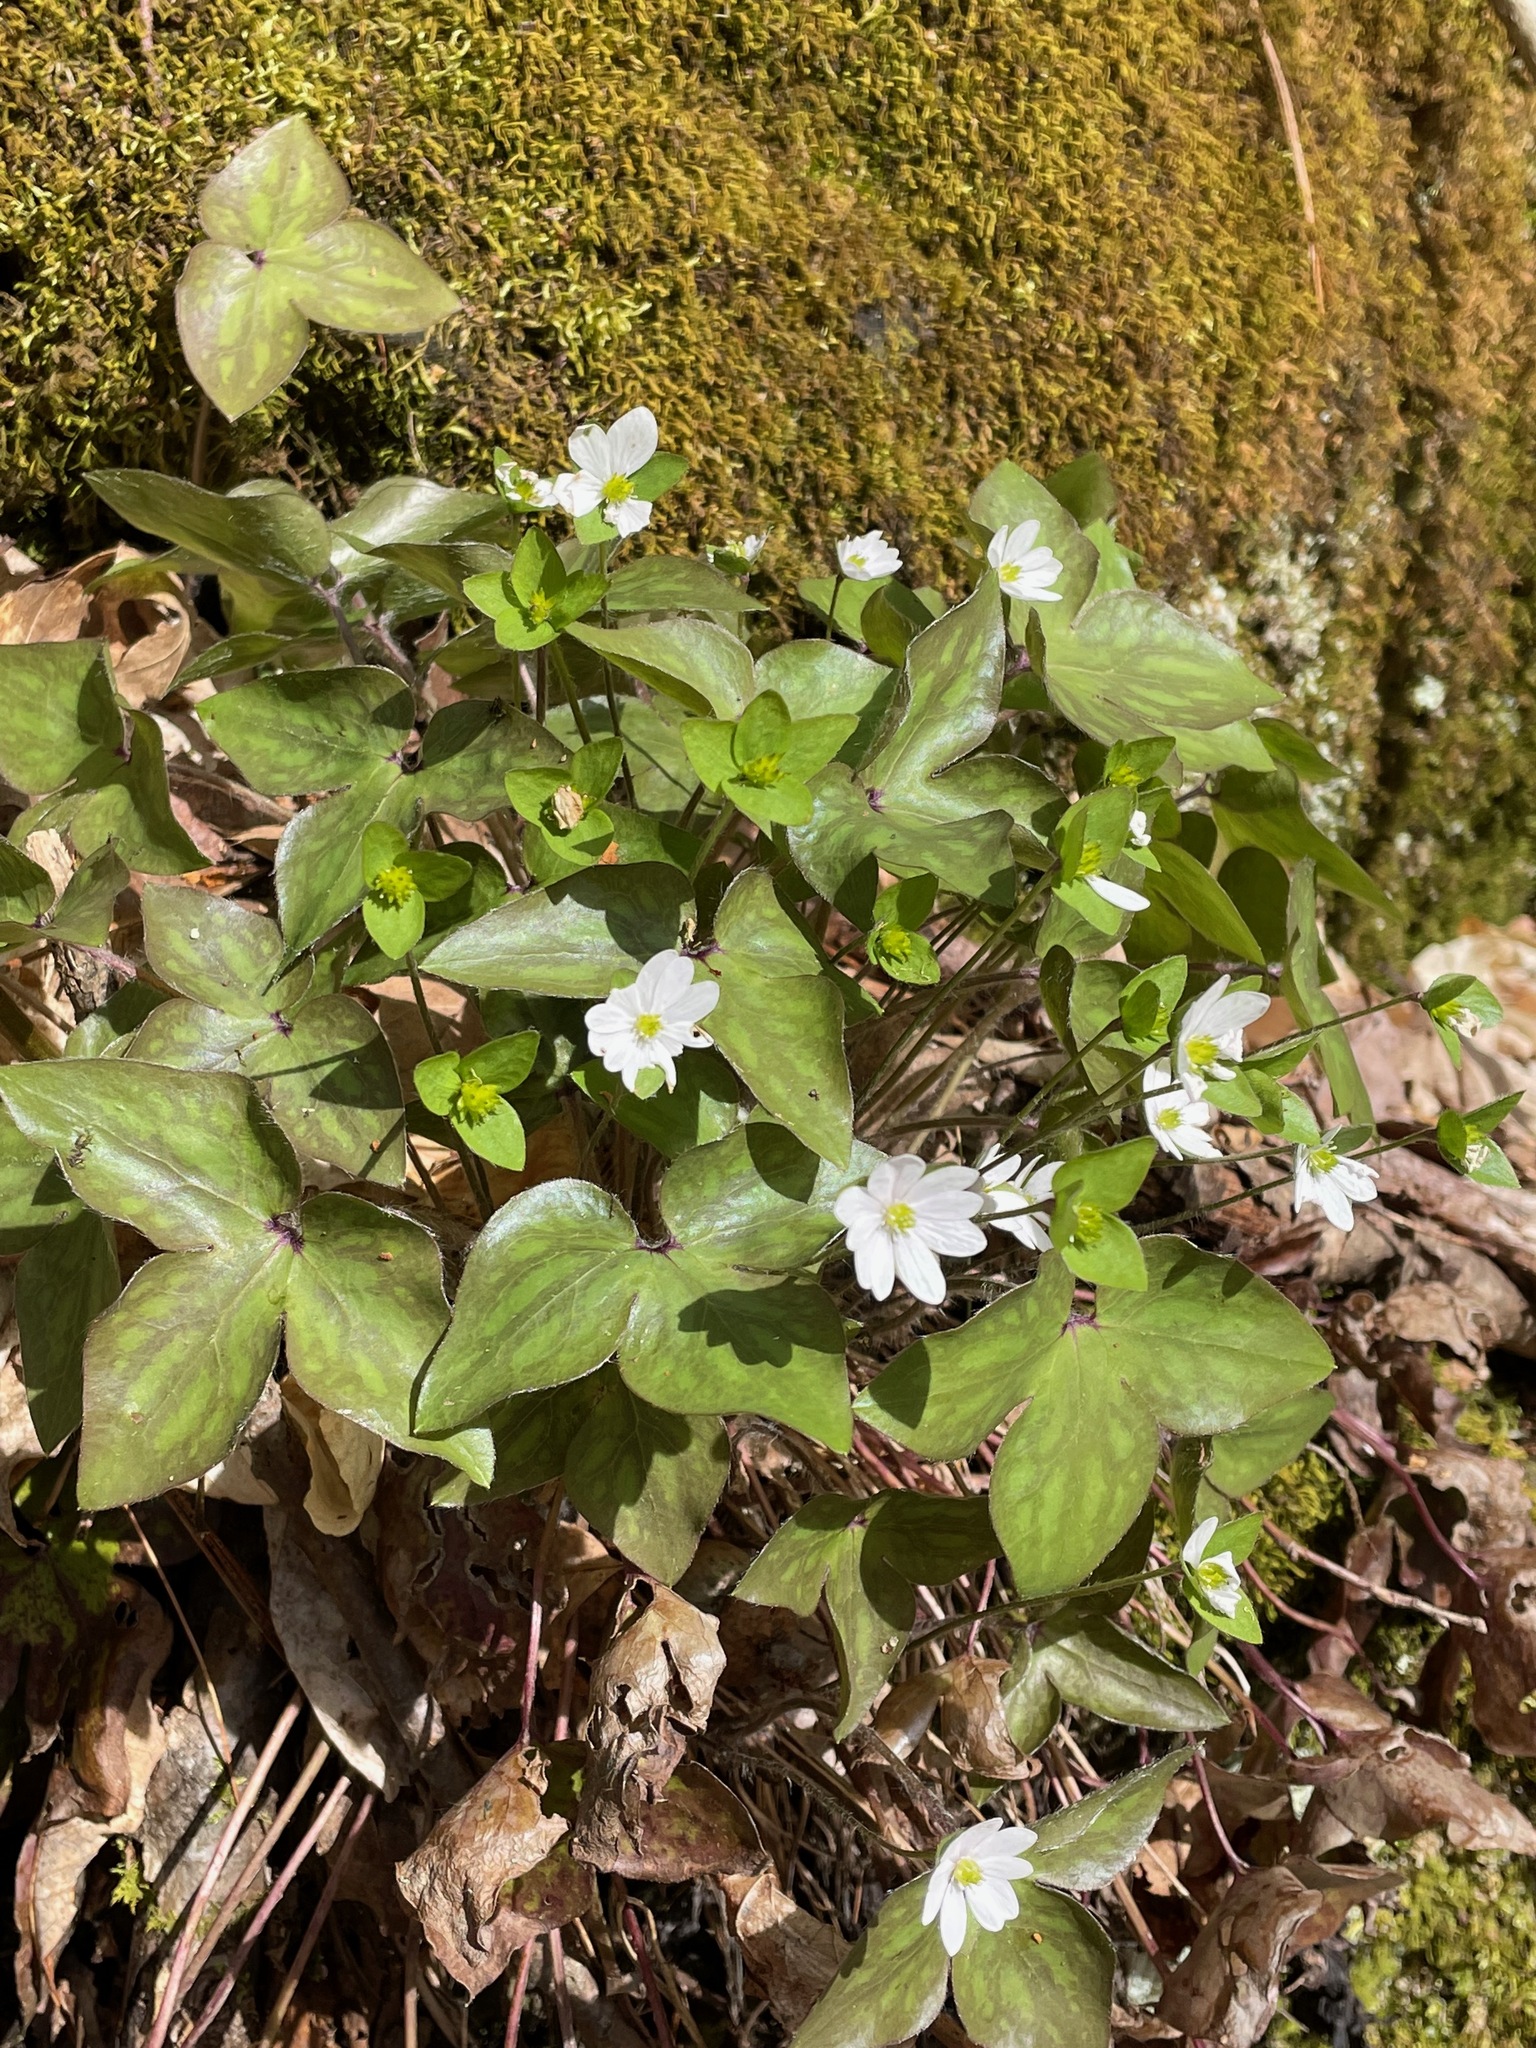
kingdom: Plantae
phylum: Tracheophyta
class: Magnoliopsida
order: Ranunculales
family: Ranunculaceae
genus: Hepatica
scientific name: Hepatica acutiloba
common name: Sharp-lobed hepatica
